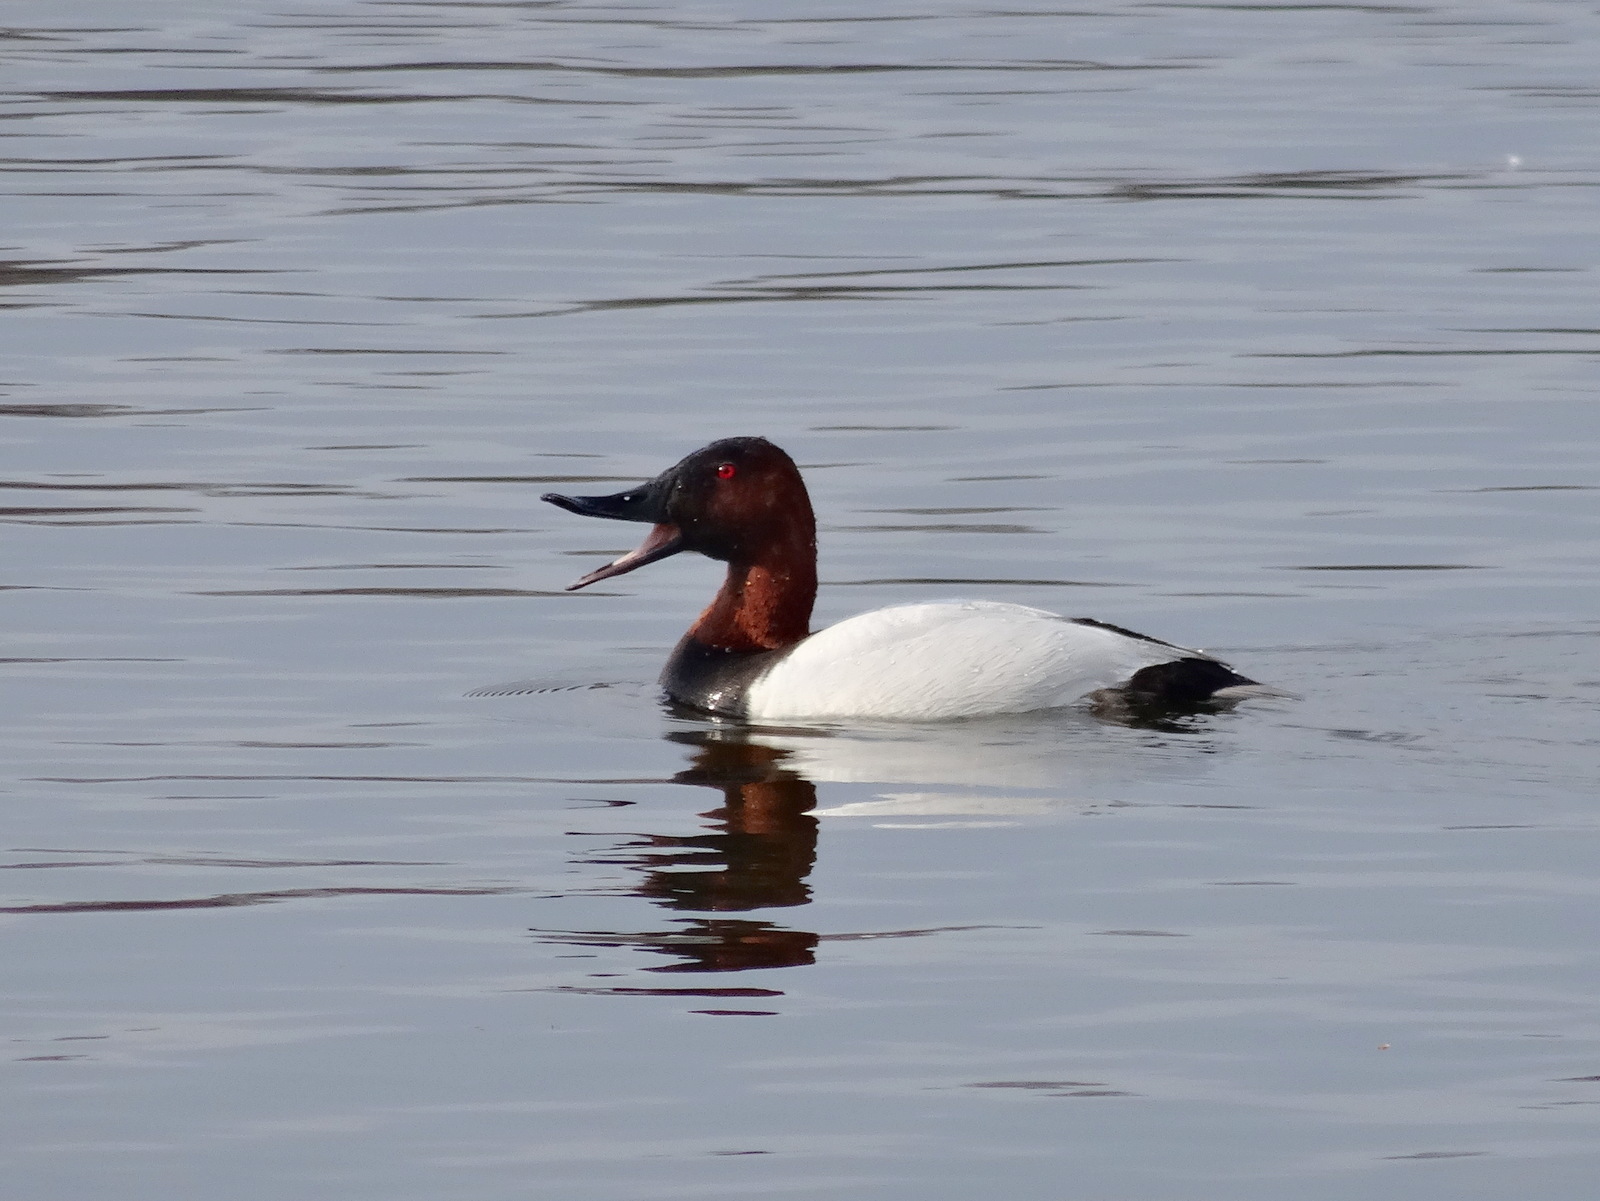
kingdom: Animalia
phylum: Chordata
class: Aves
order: Anseriformes
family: Anatidae
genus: Aythya
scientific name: Aythya valisineria
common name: Canvasback
